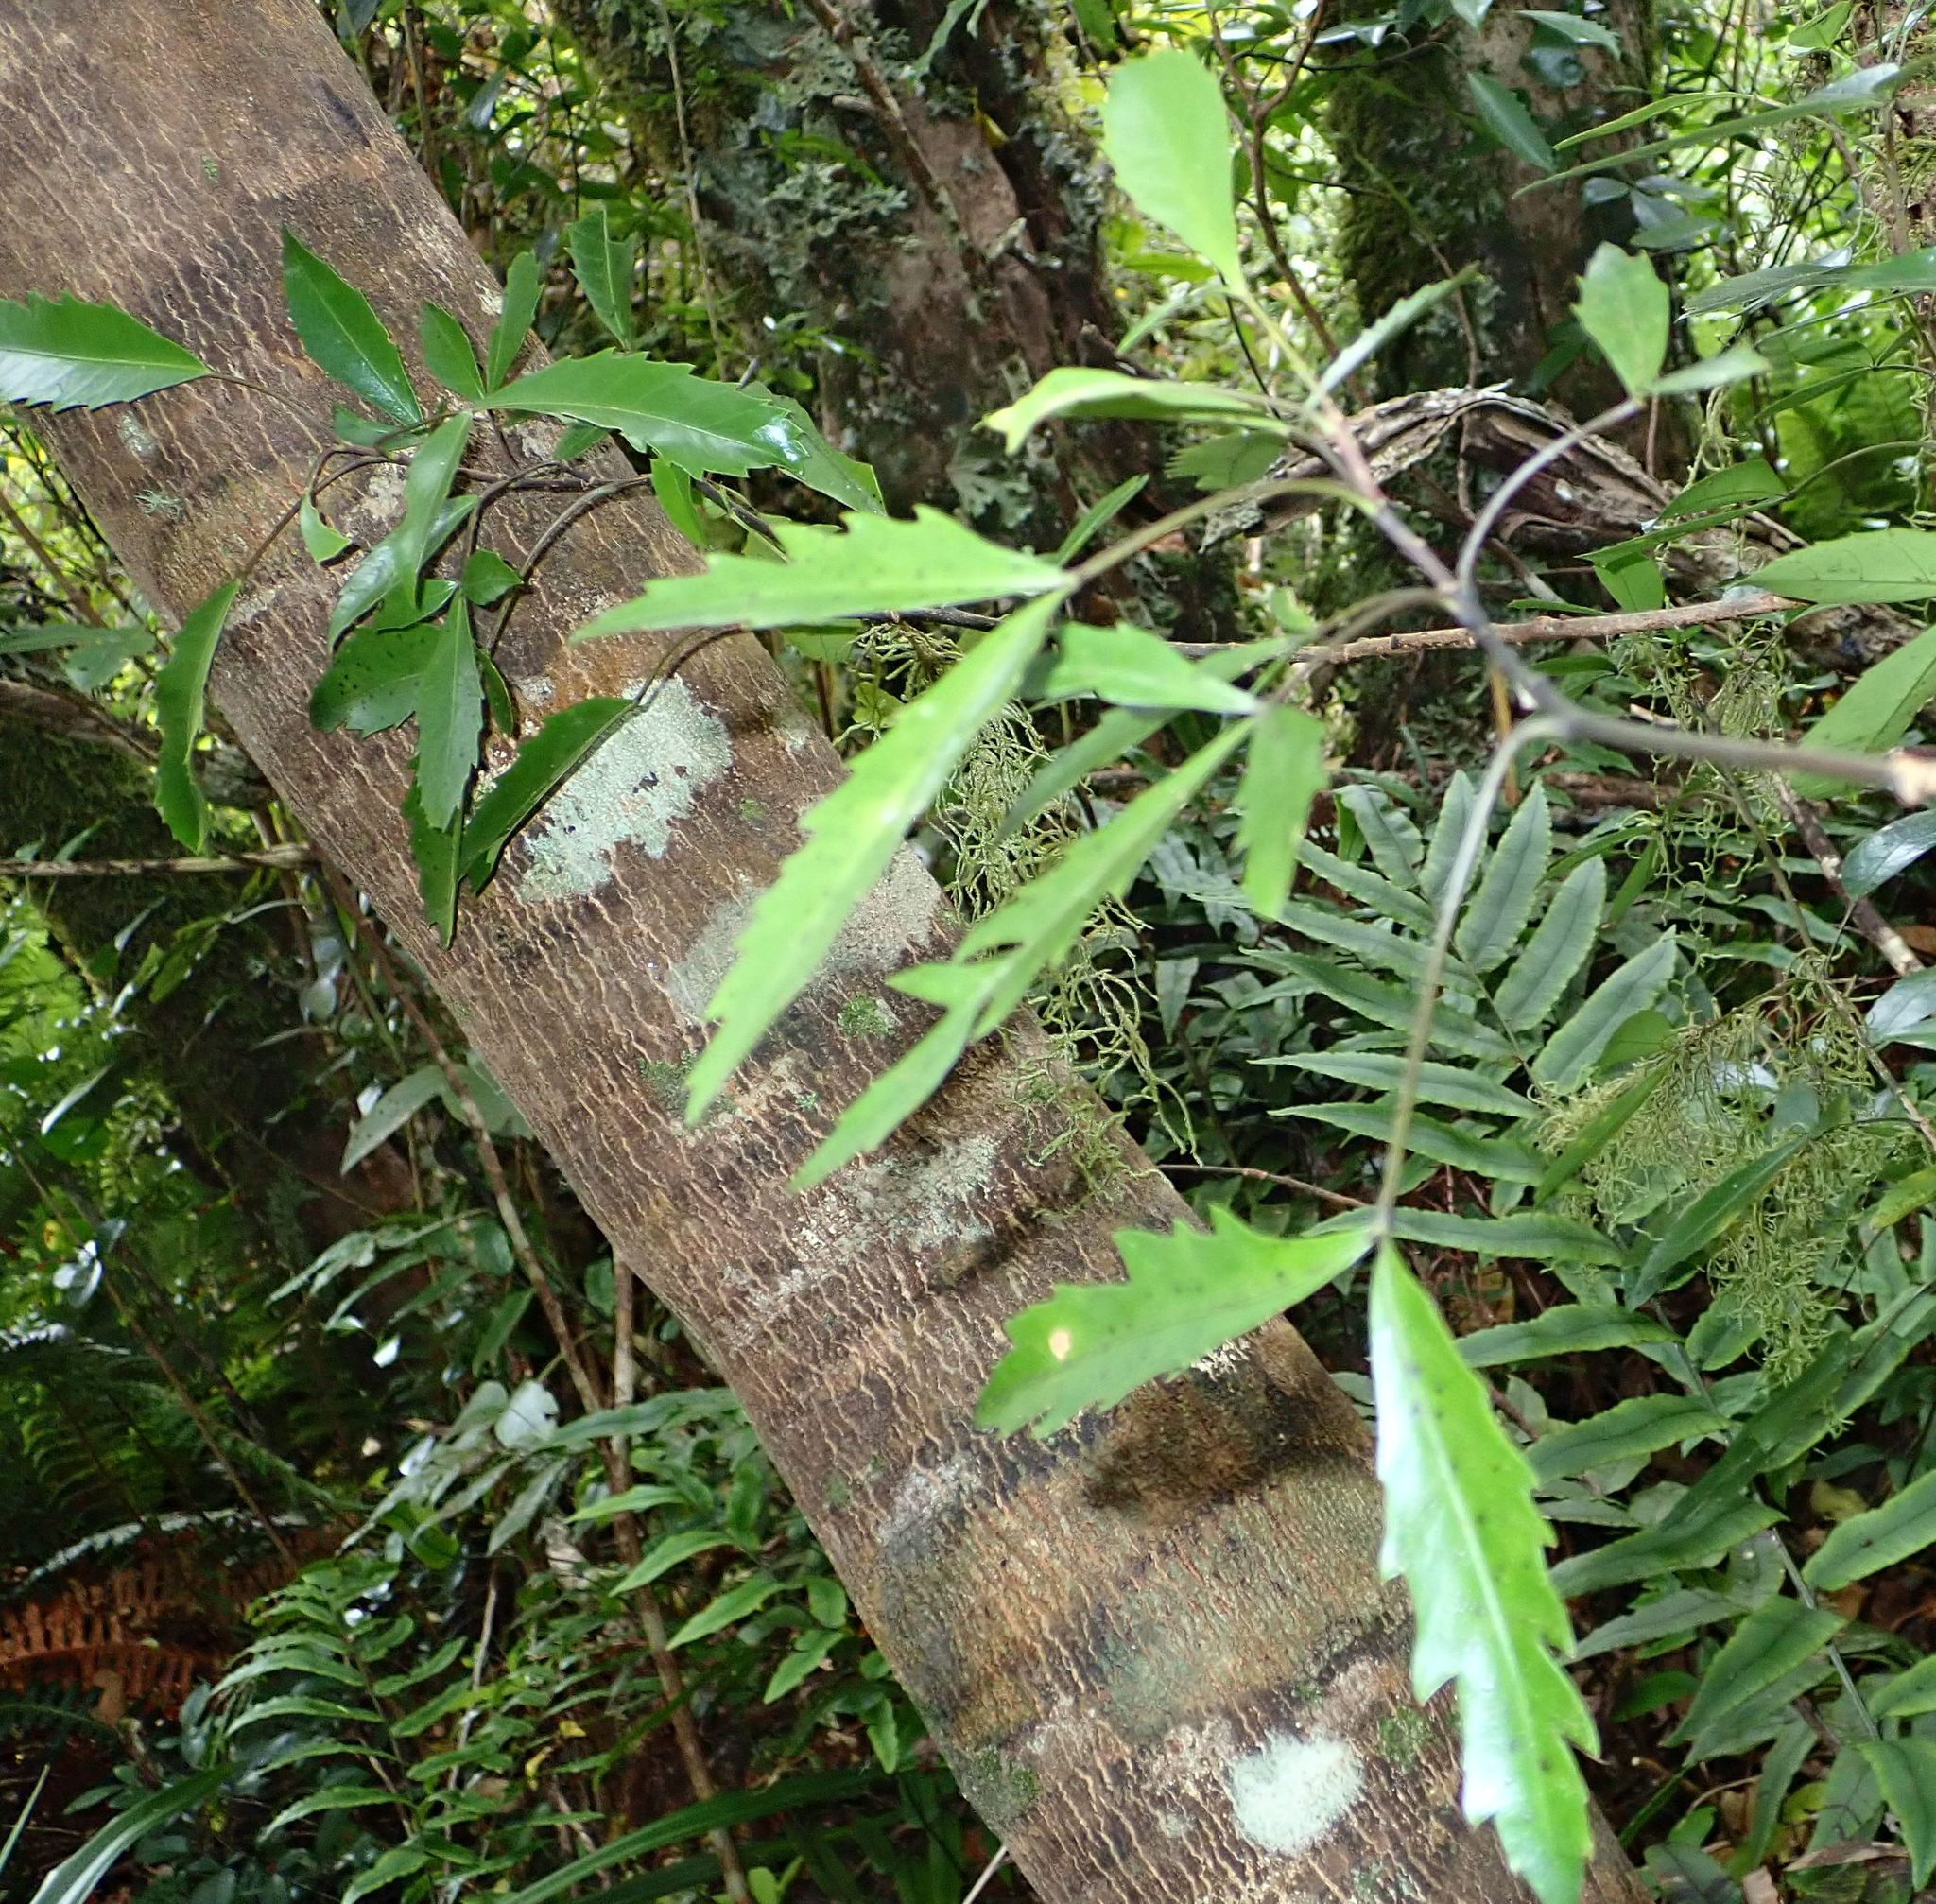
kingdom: Plantae
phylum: Tracheophyta
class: Magnoliopsida
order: Apiales
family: Araliaceae
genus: Raukaua
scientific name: Raukaua simplex
